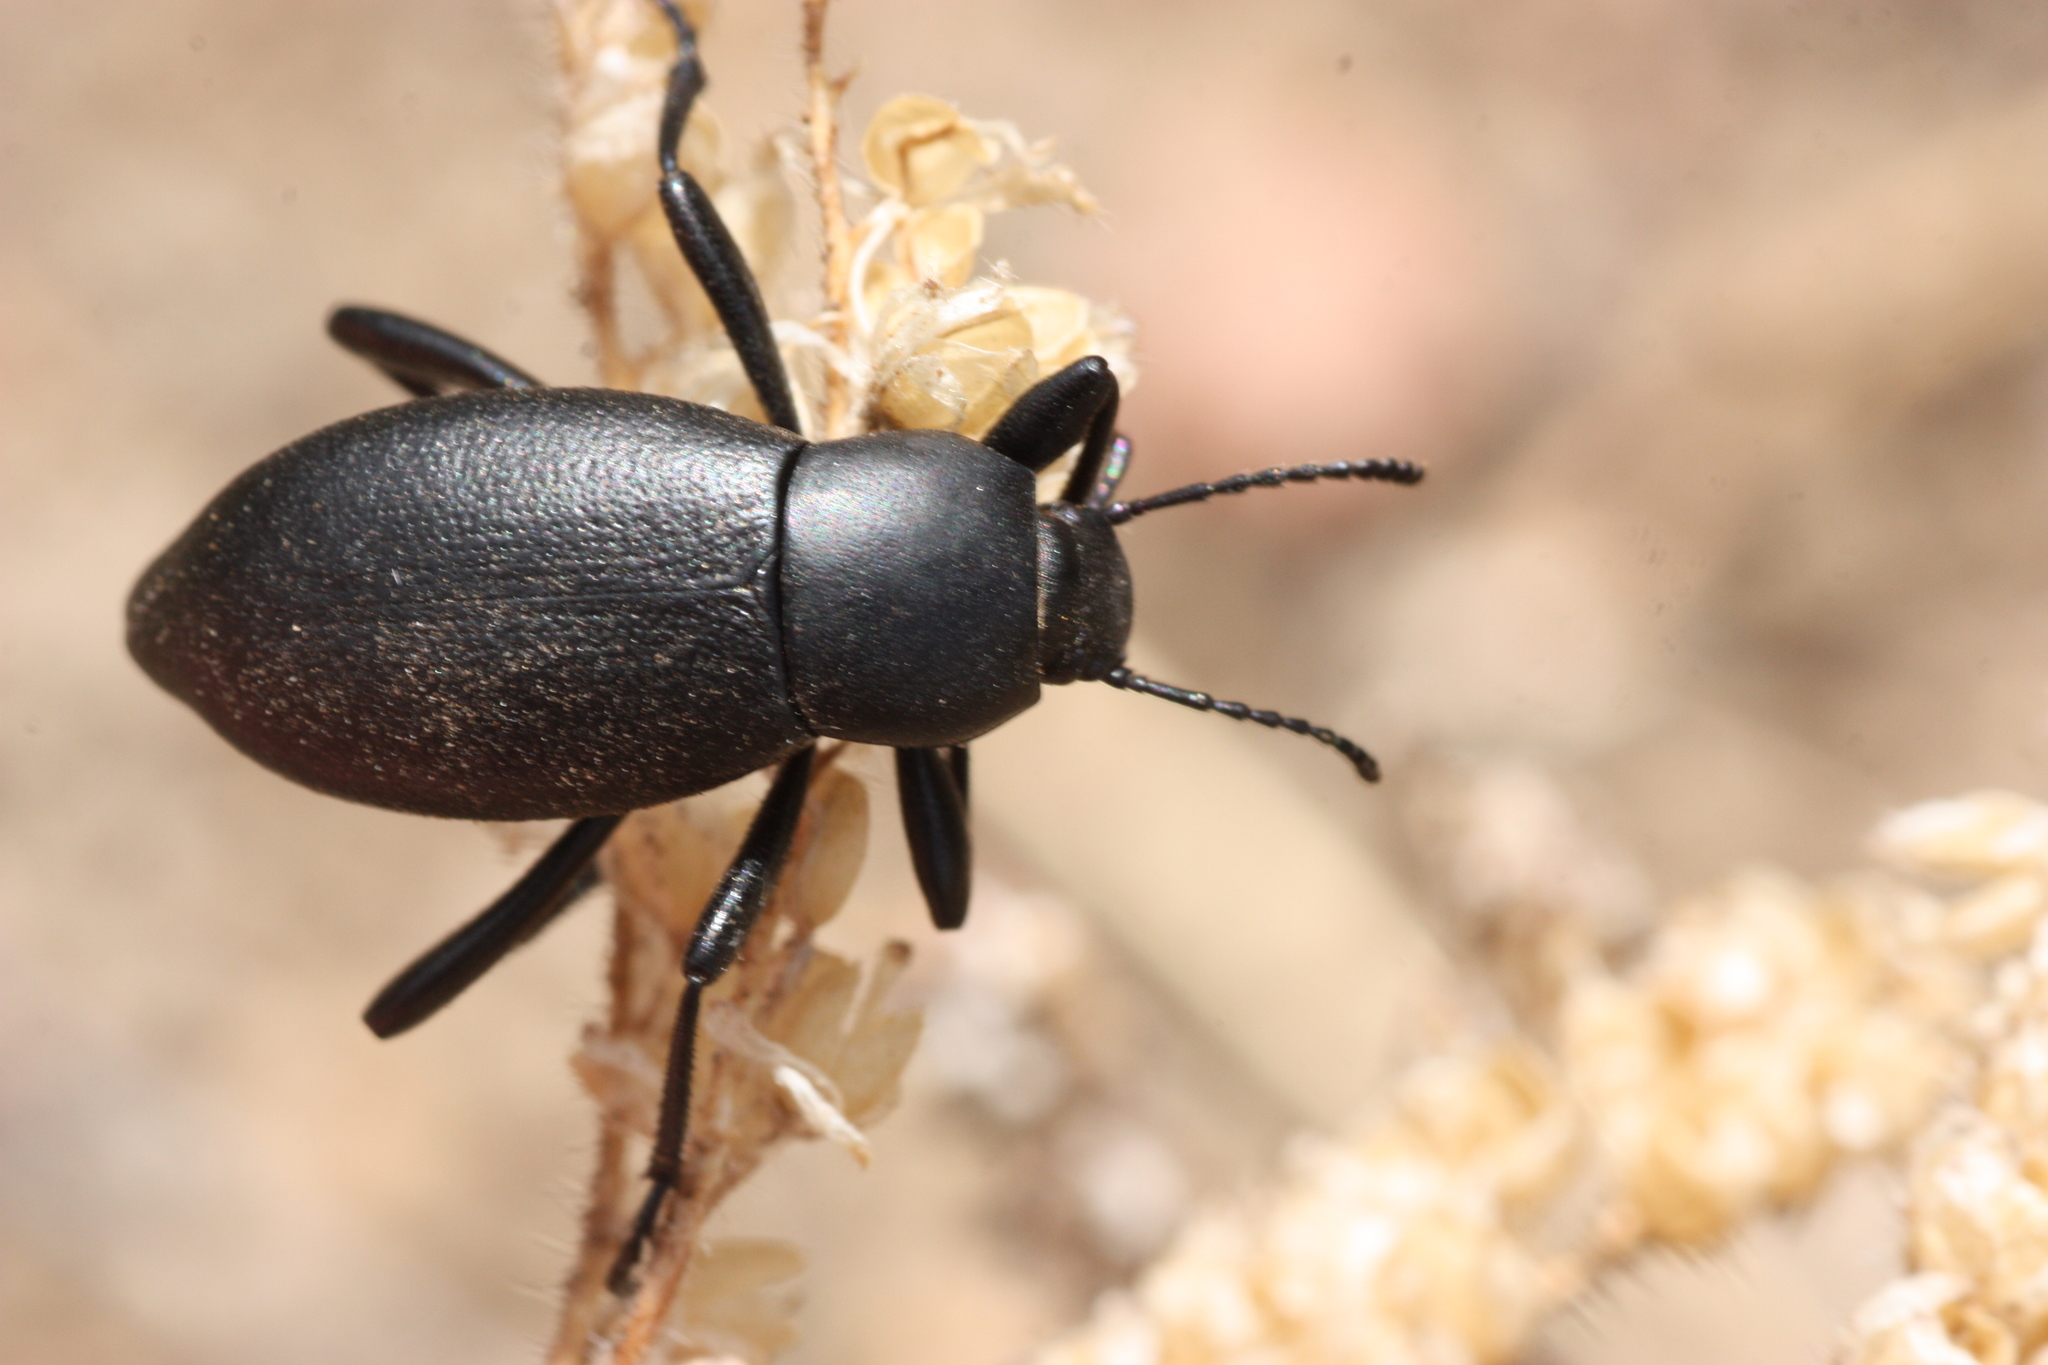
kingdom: Animalia
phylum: Arthropoda
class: Insecta
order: Coleoptera
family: Tenebrionidae
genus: Eleodes
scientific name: Eleodes extricata
